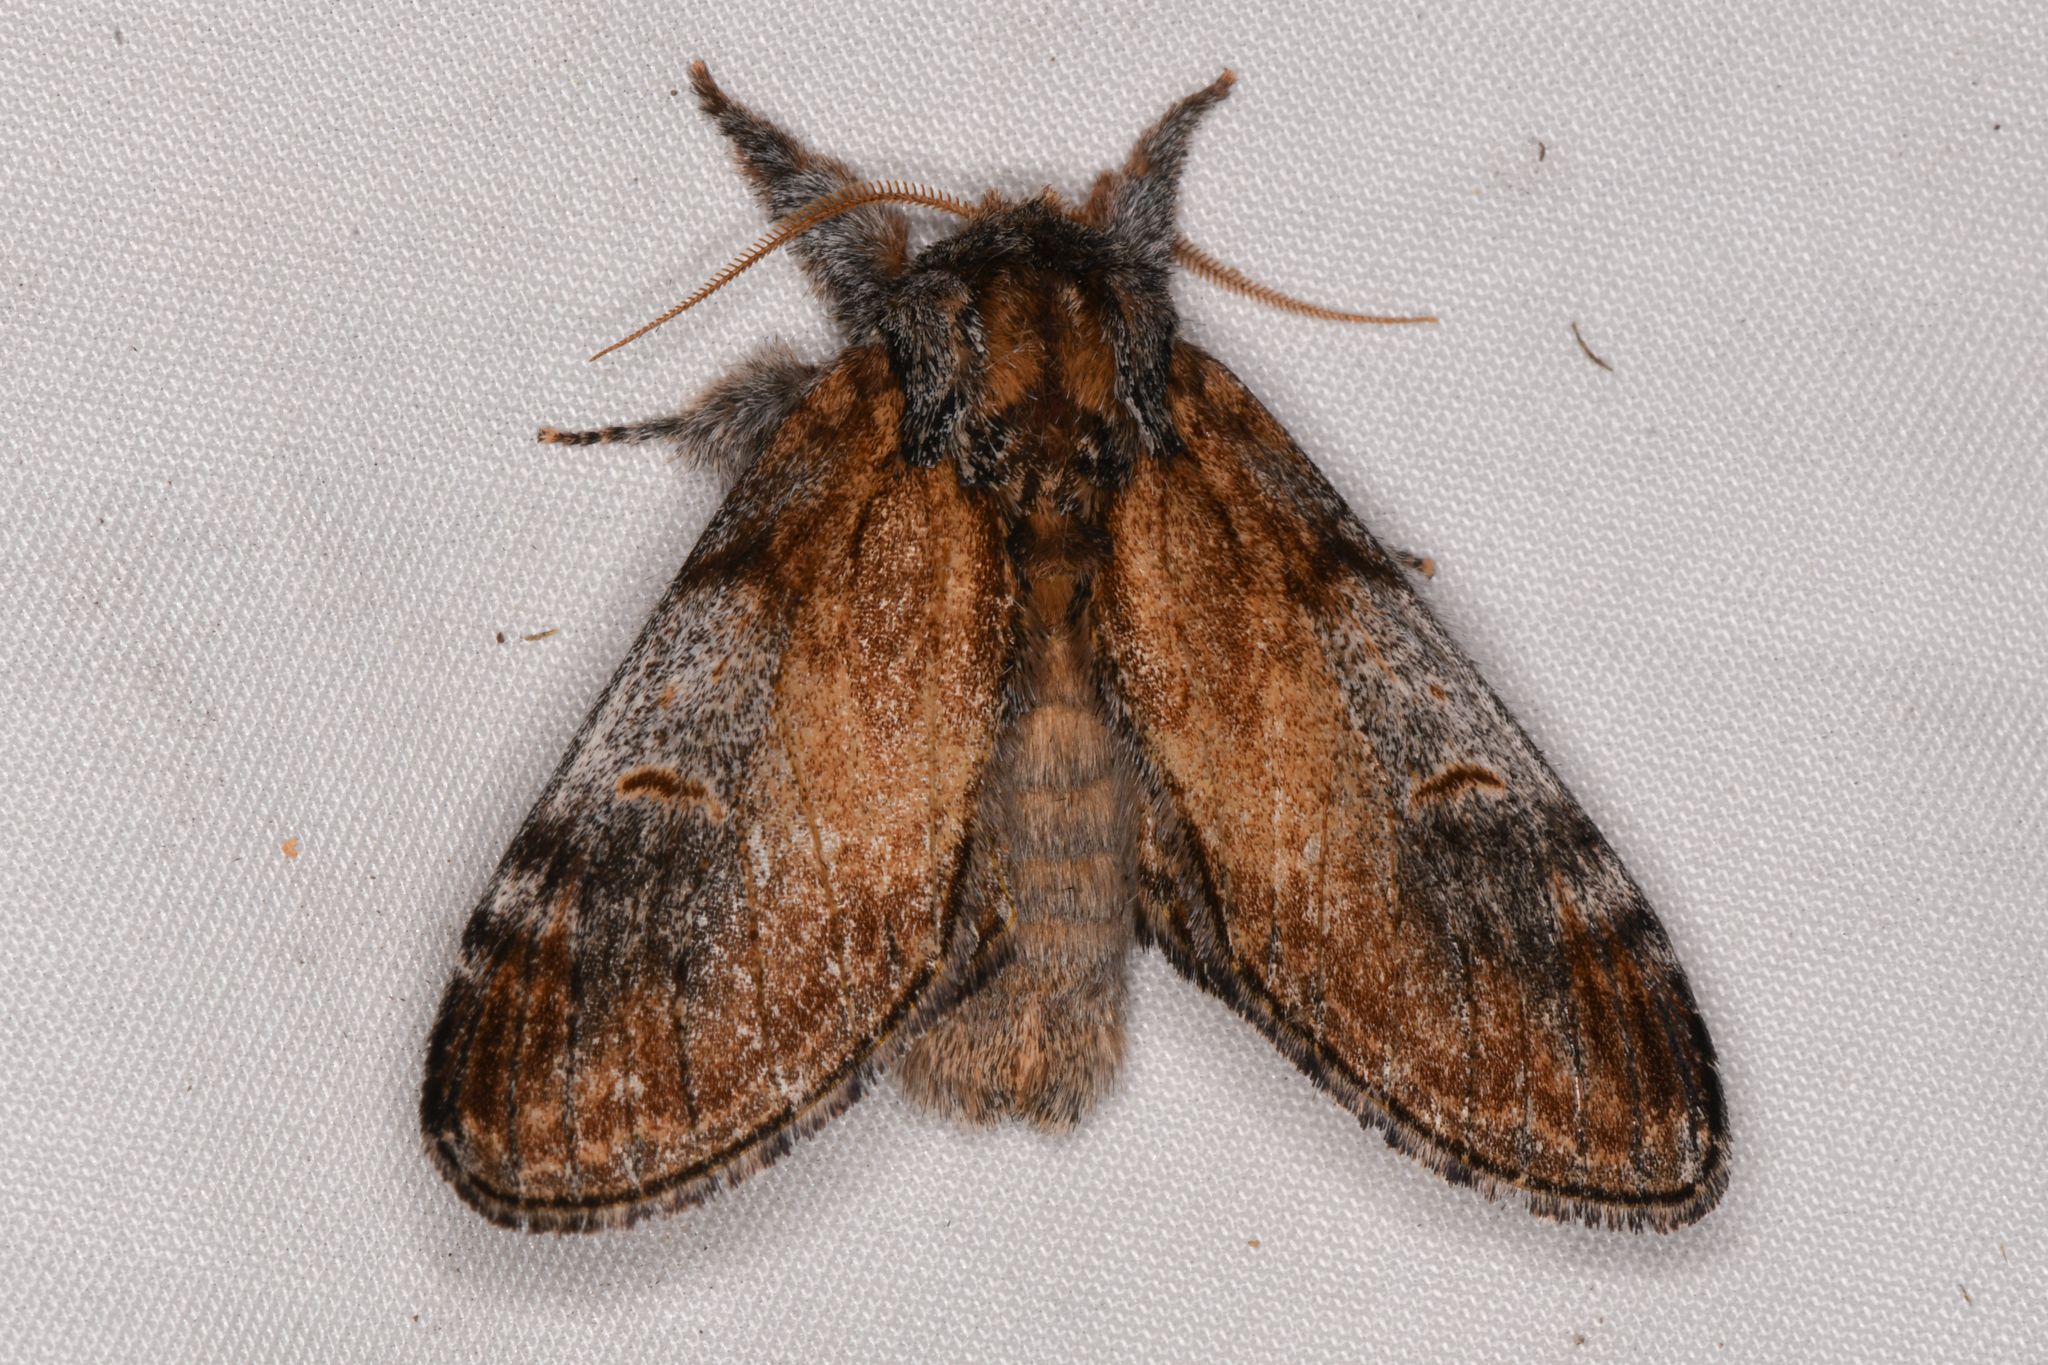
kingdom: Animalia
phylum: Arthropoda
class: Insecta
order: Lepidoptera
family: Notodontidae
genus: Notodonta
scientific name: Notodonta pacifica
